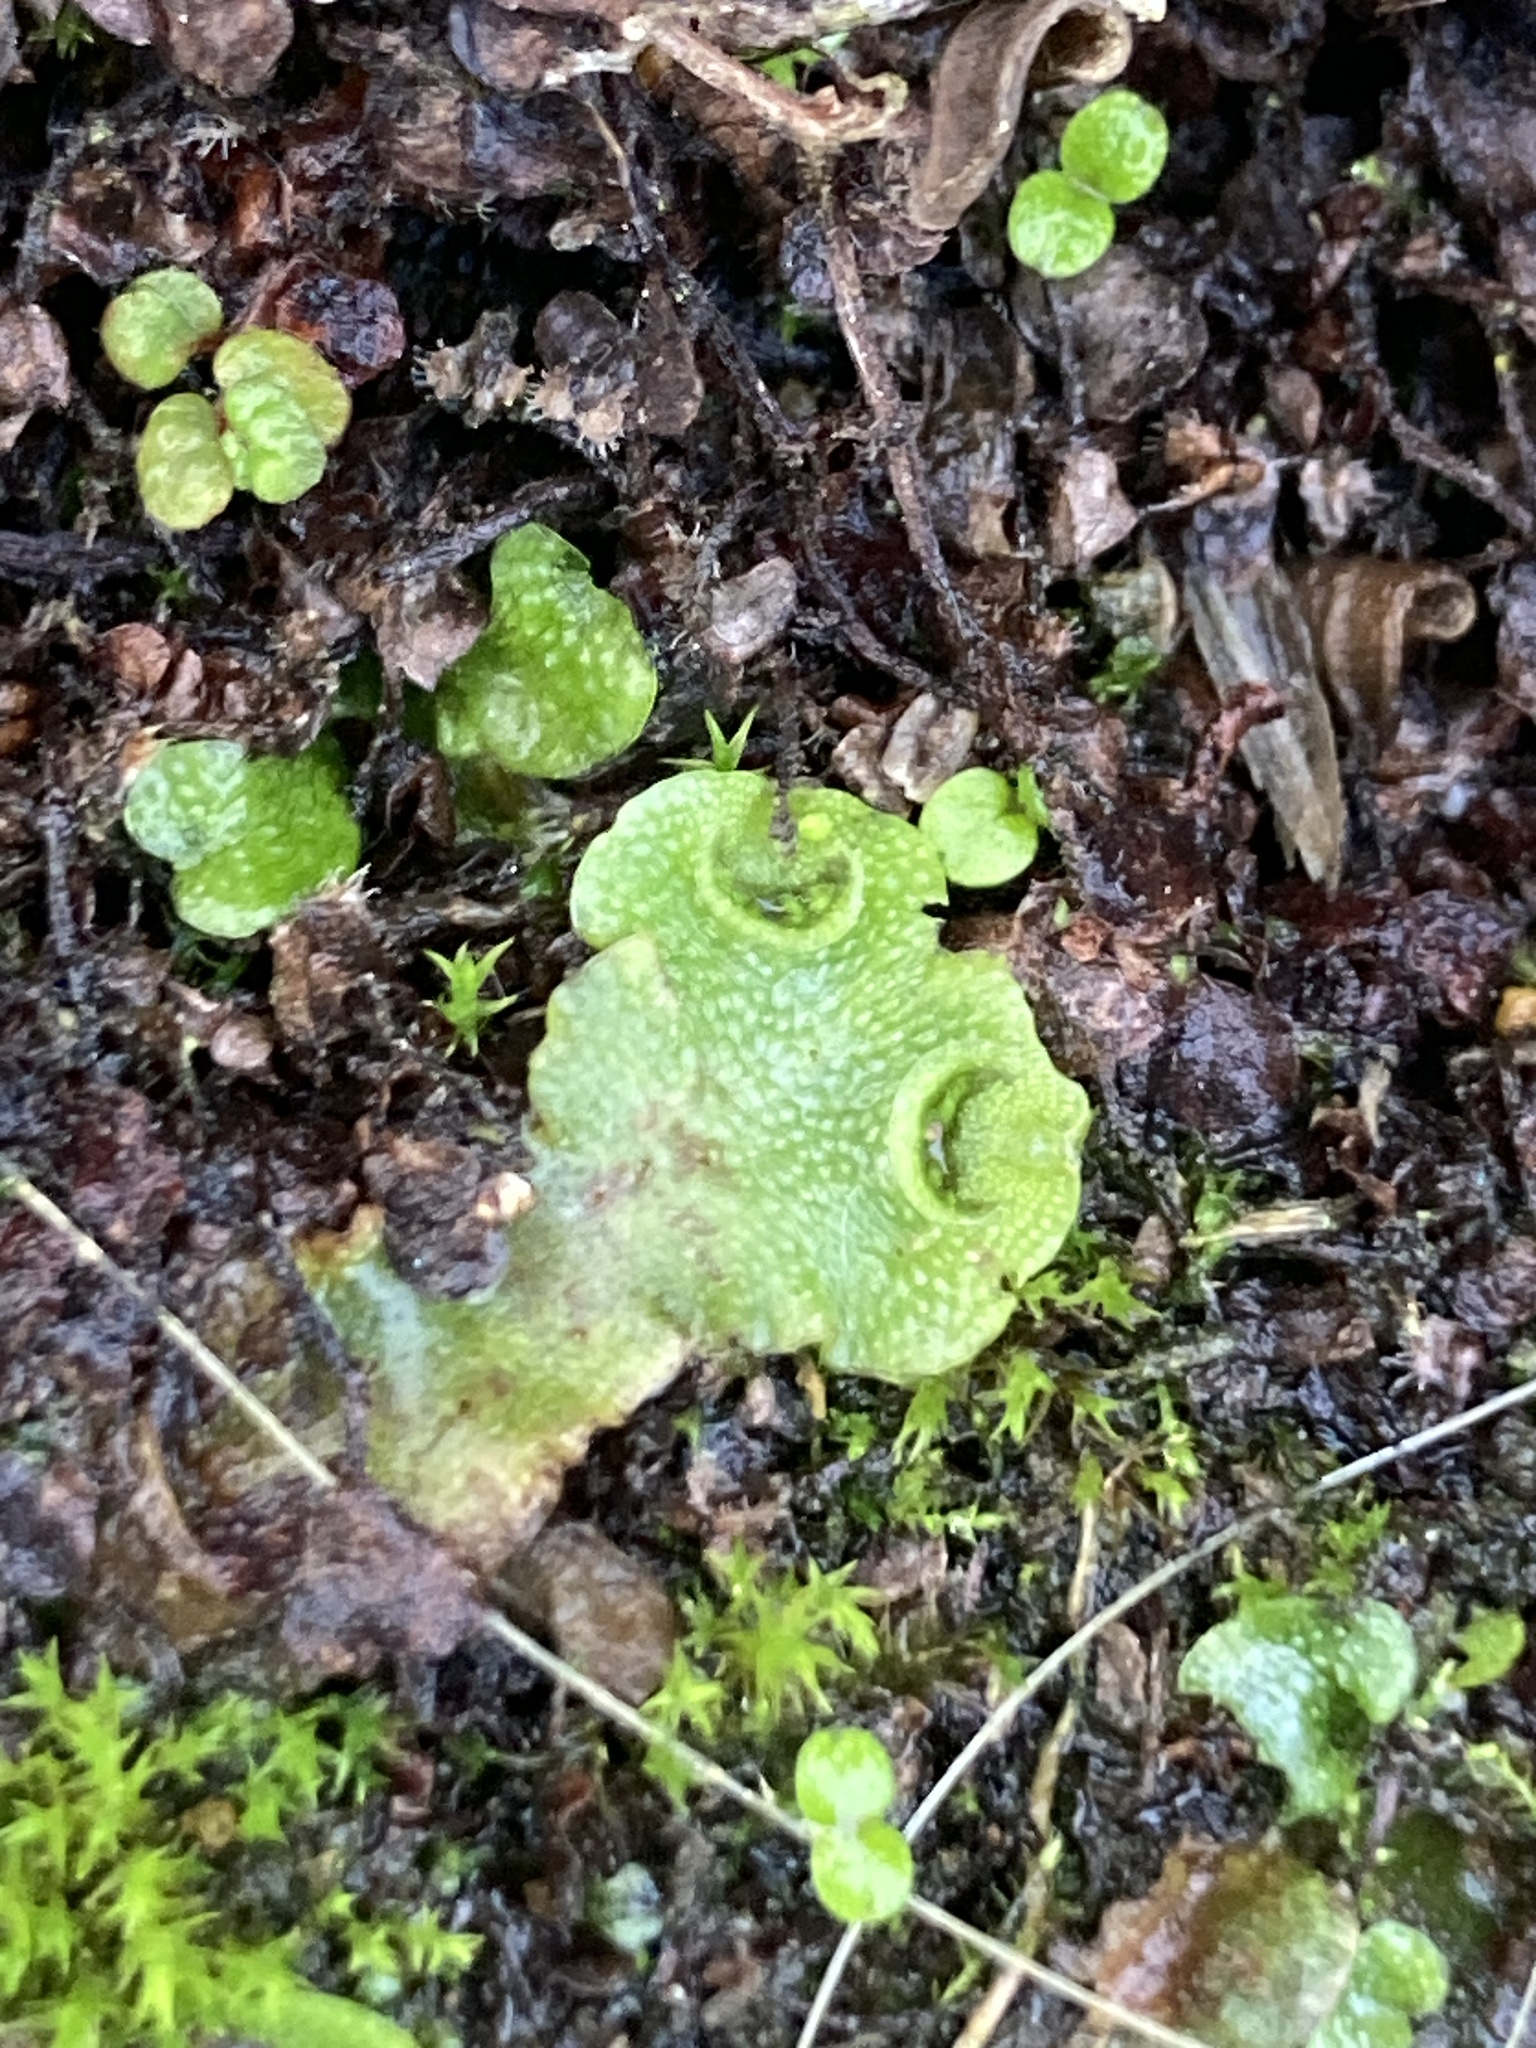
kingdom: Plantae
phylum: Marchantiophyta
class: Marchantiopsida
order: Lunulariales
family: Lunulariaceae
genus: Lunularia
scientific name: Lunularia cruciata
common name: Crescent-cup liverwort
